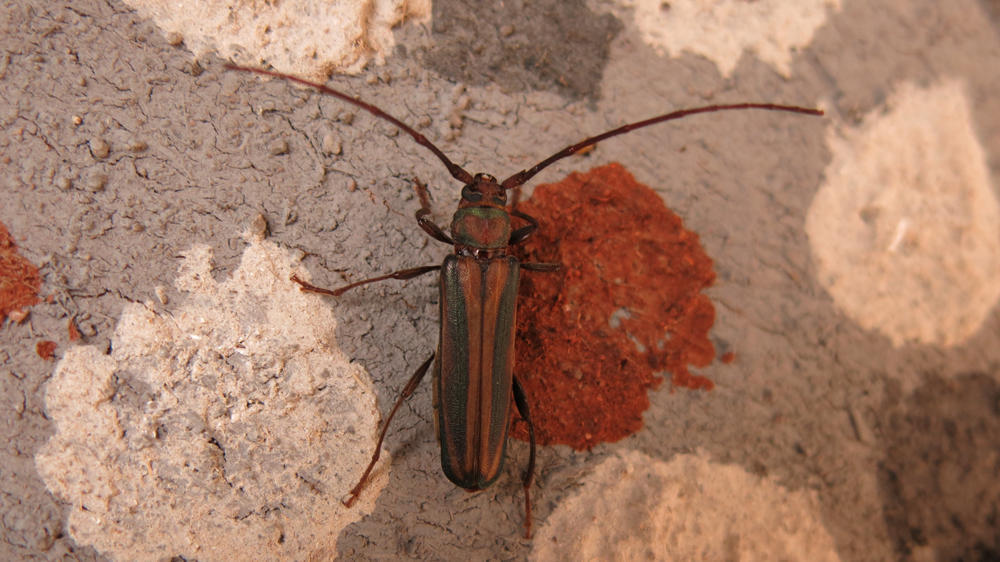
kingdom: Animalia
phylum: Arthropoda
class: Insecta
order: Coleoptera
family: Cerambycidae
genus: Xystrocera
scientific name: Xystrocera dispar
